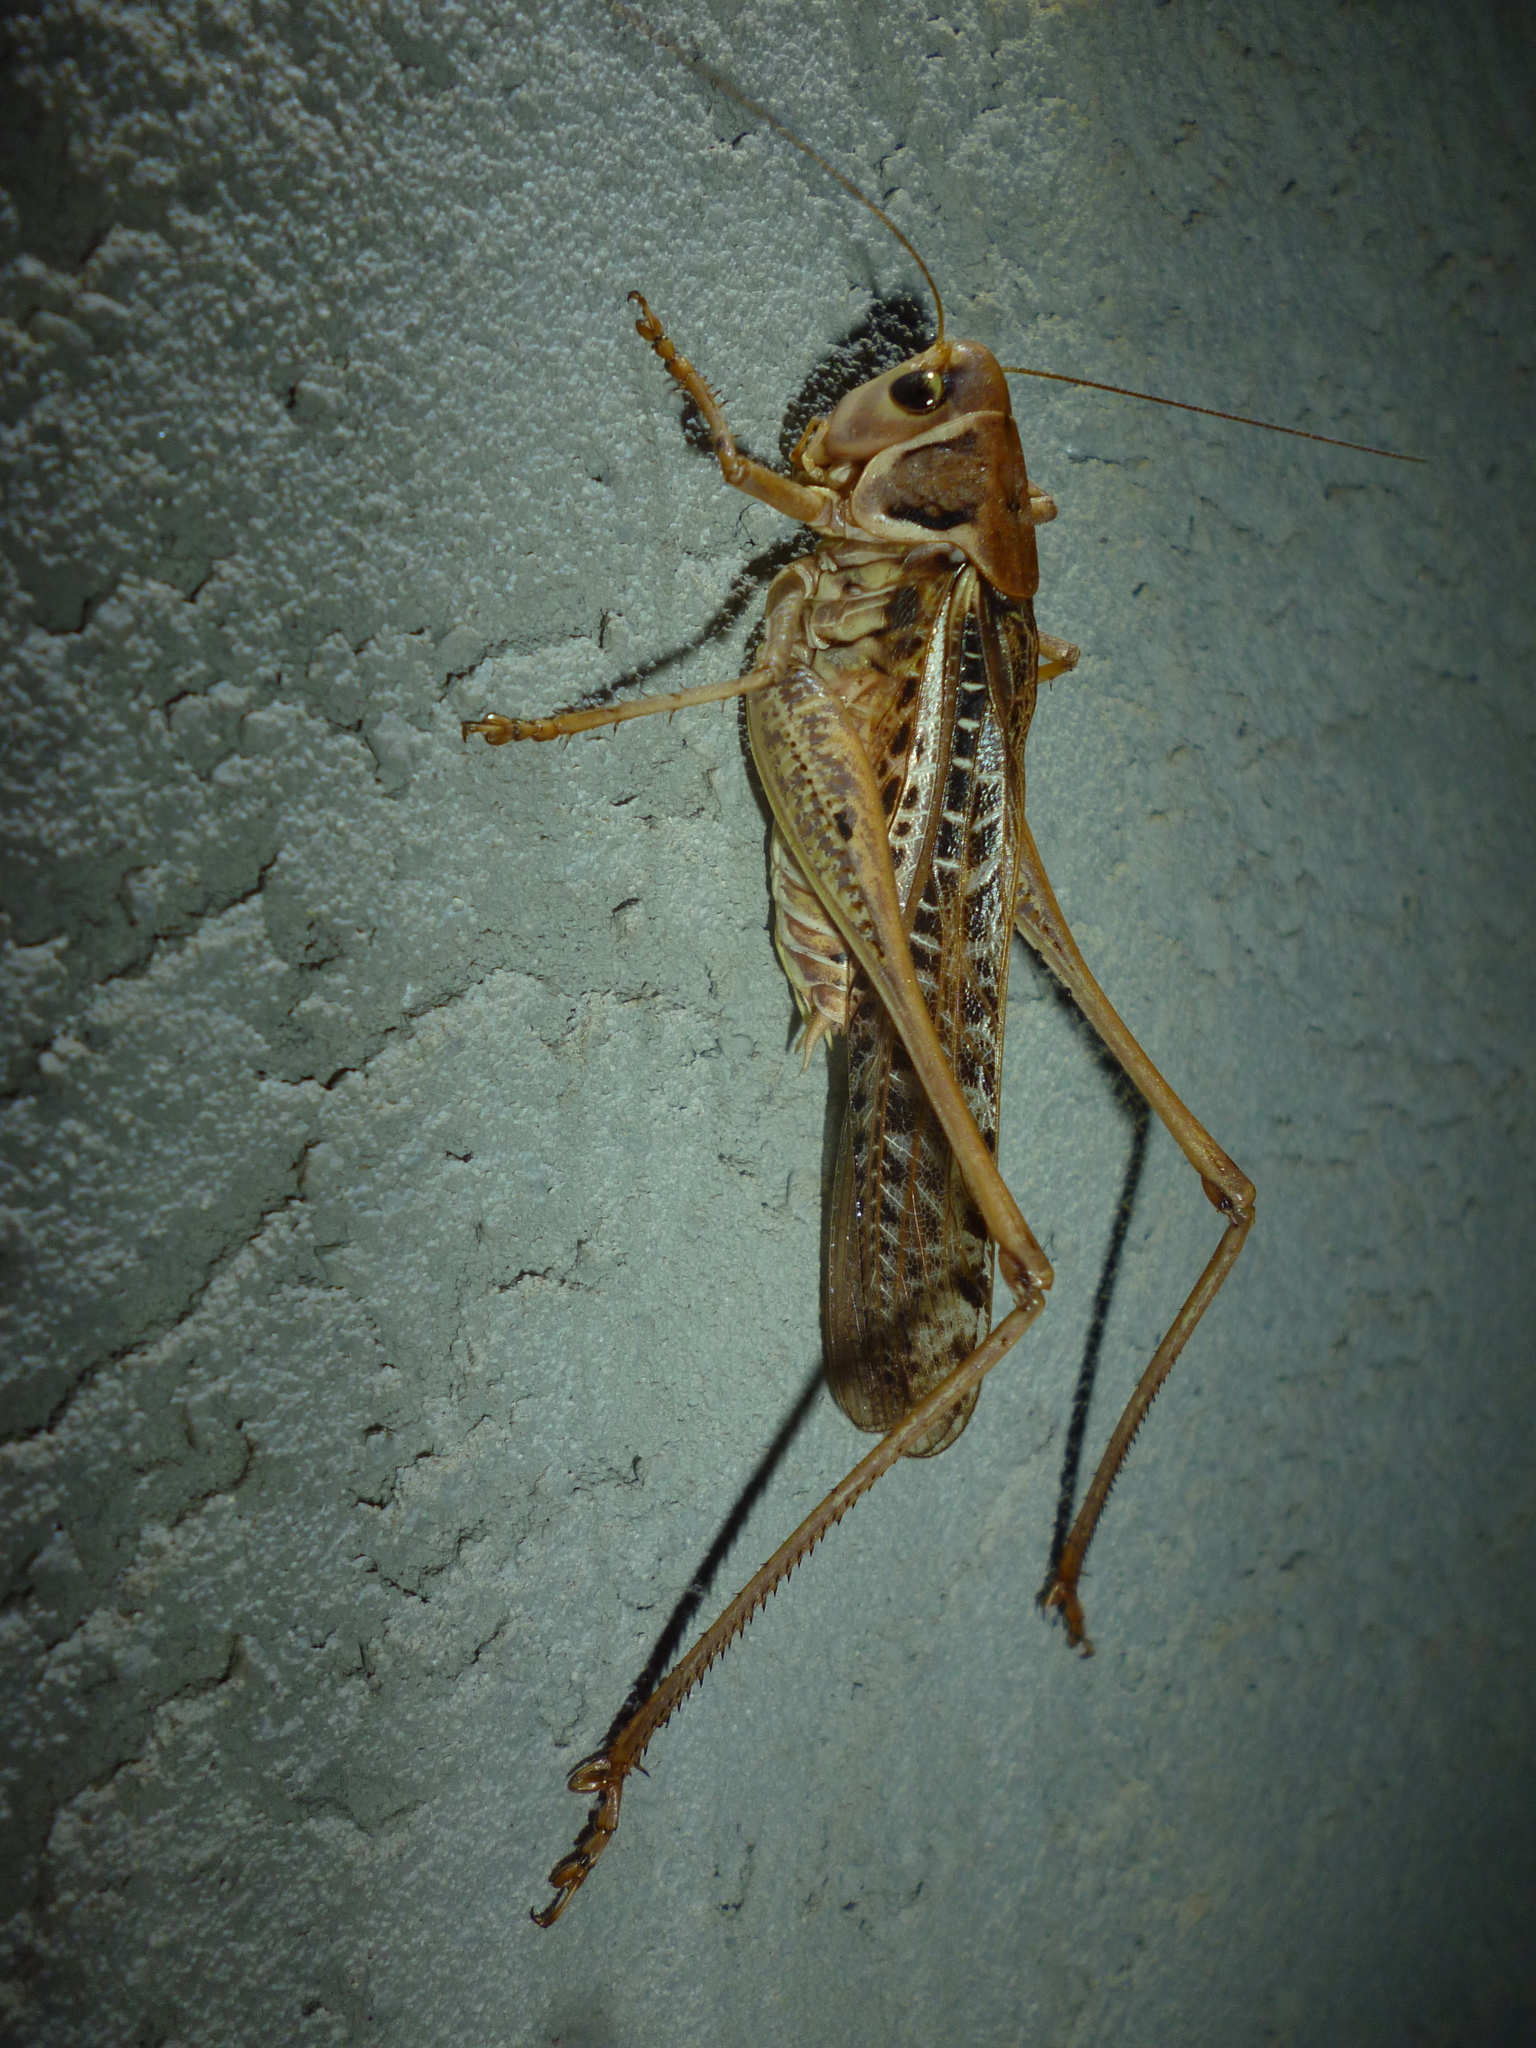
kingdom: Animalia
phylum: Arthropoda
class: Insecta
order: Orthoptera
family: Tettigoniidae
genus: Decticus
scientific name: Decticus albifrons
